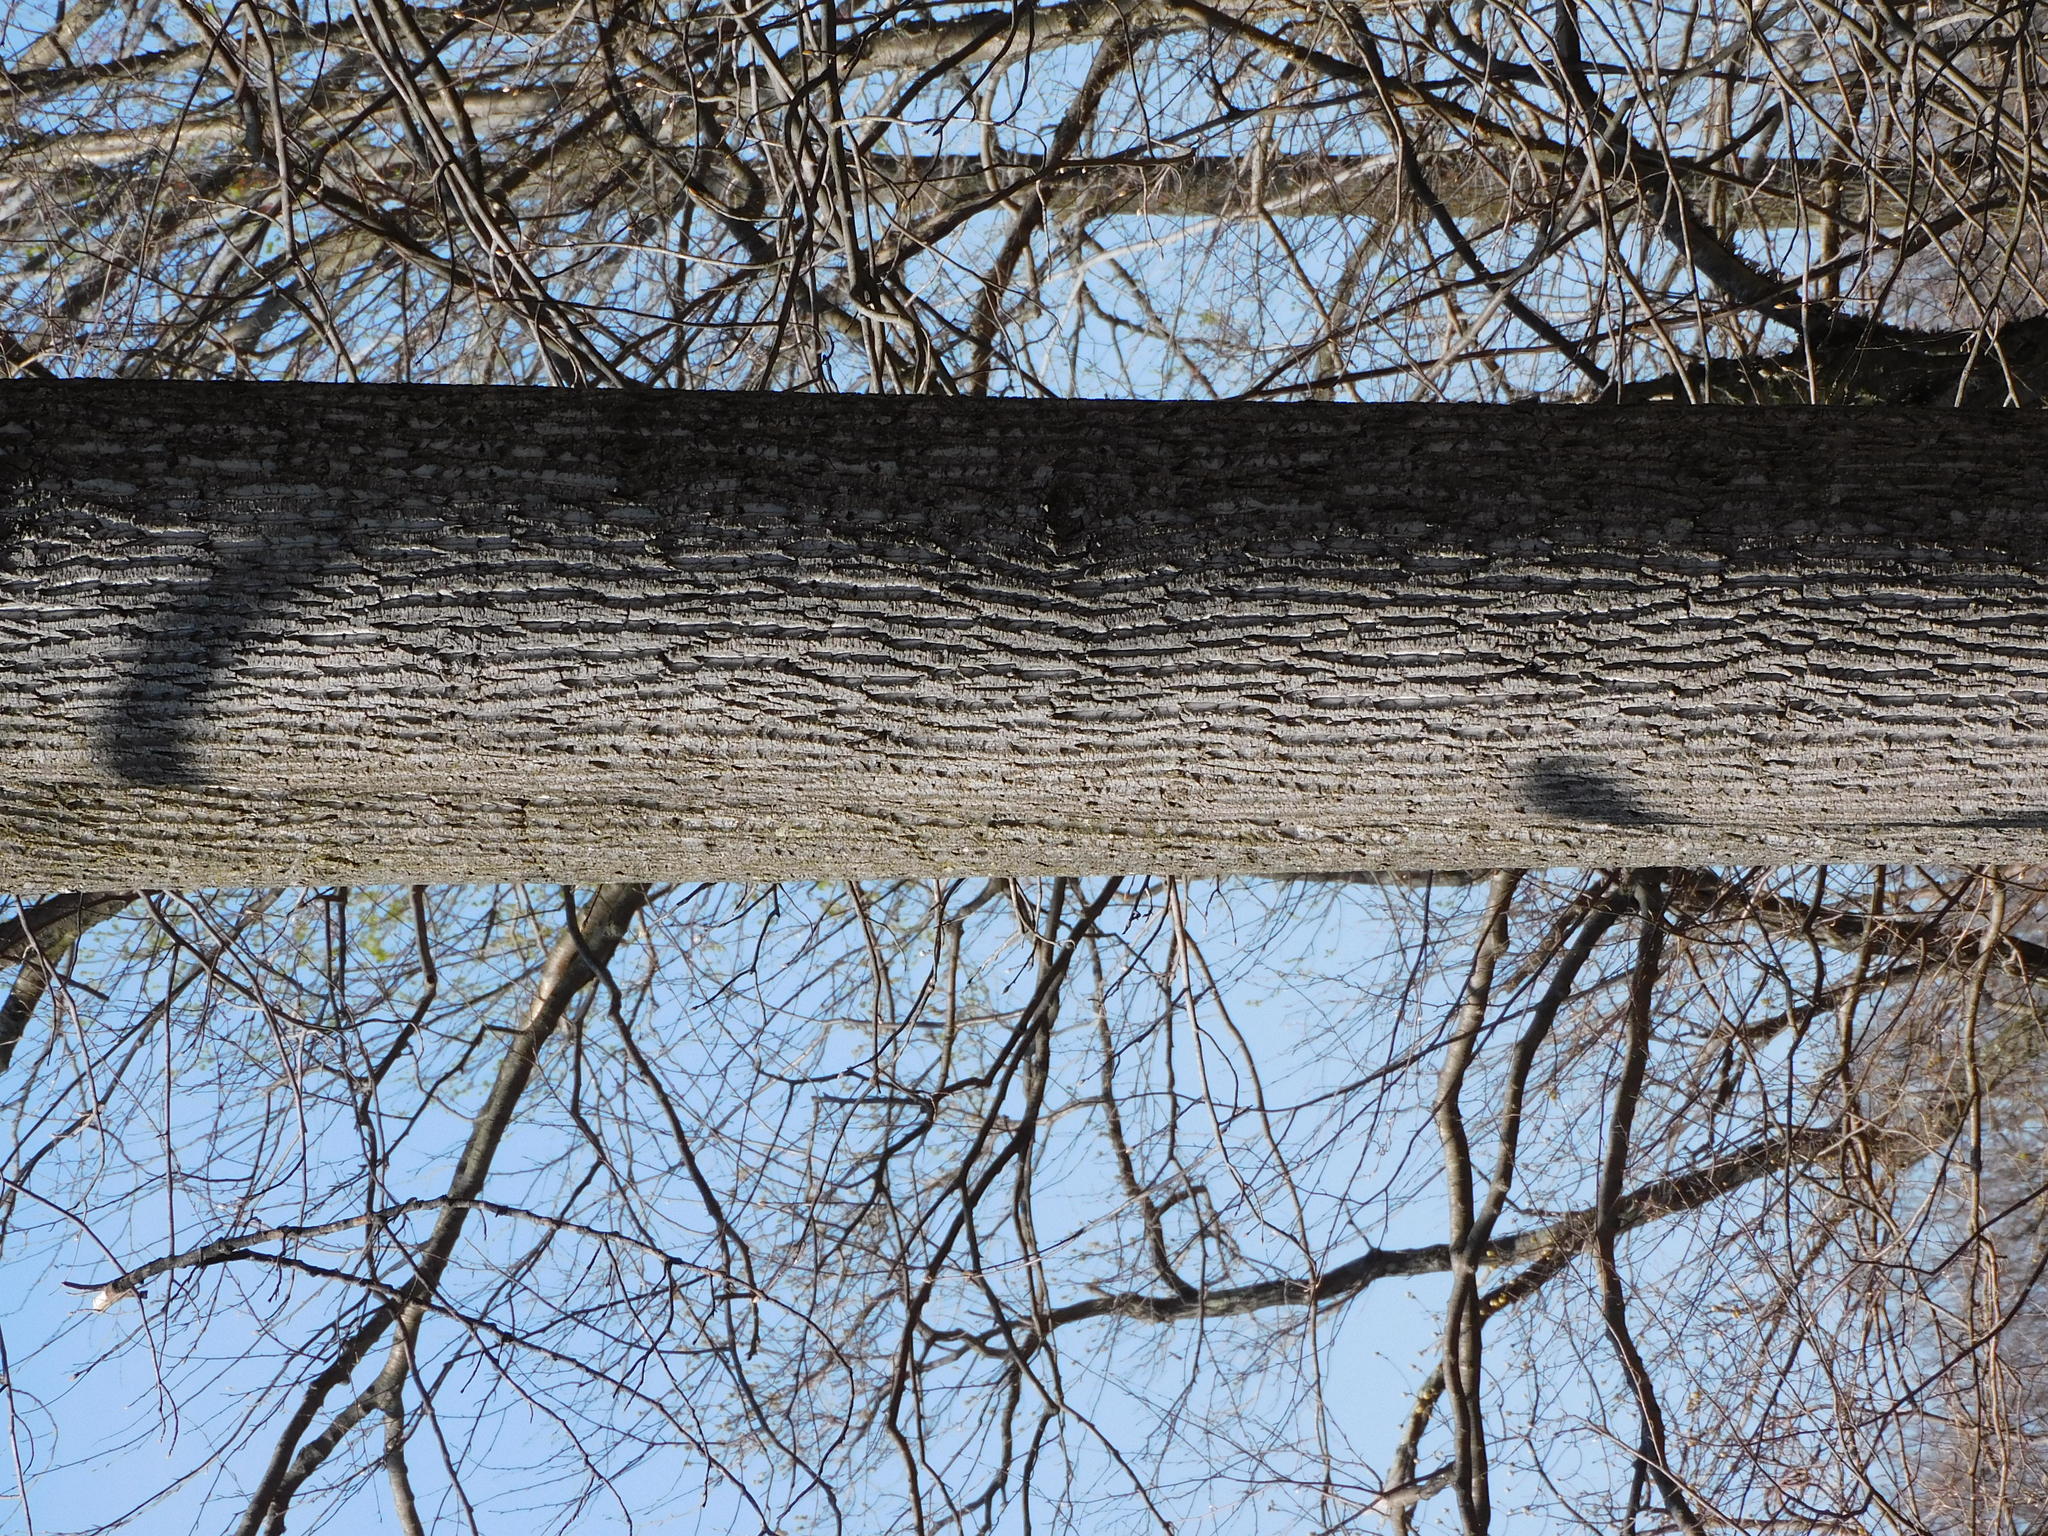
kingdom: Plantae
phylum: Tracheophyta
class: Magnoliopsida
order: Magnoliales
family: Magnoliaceae
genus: Liriodendron
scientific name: Liriodendron tulipifera
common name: Tulip tree
